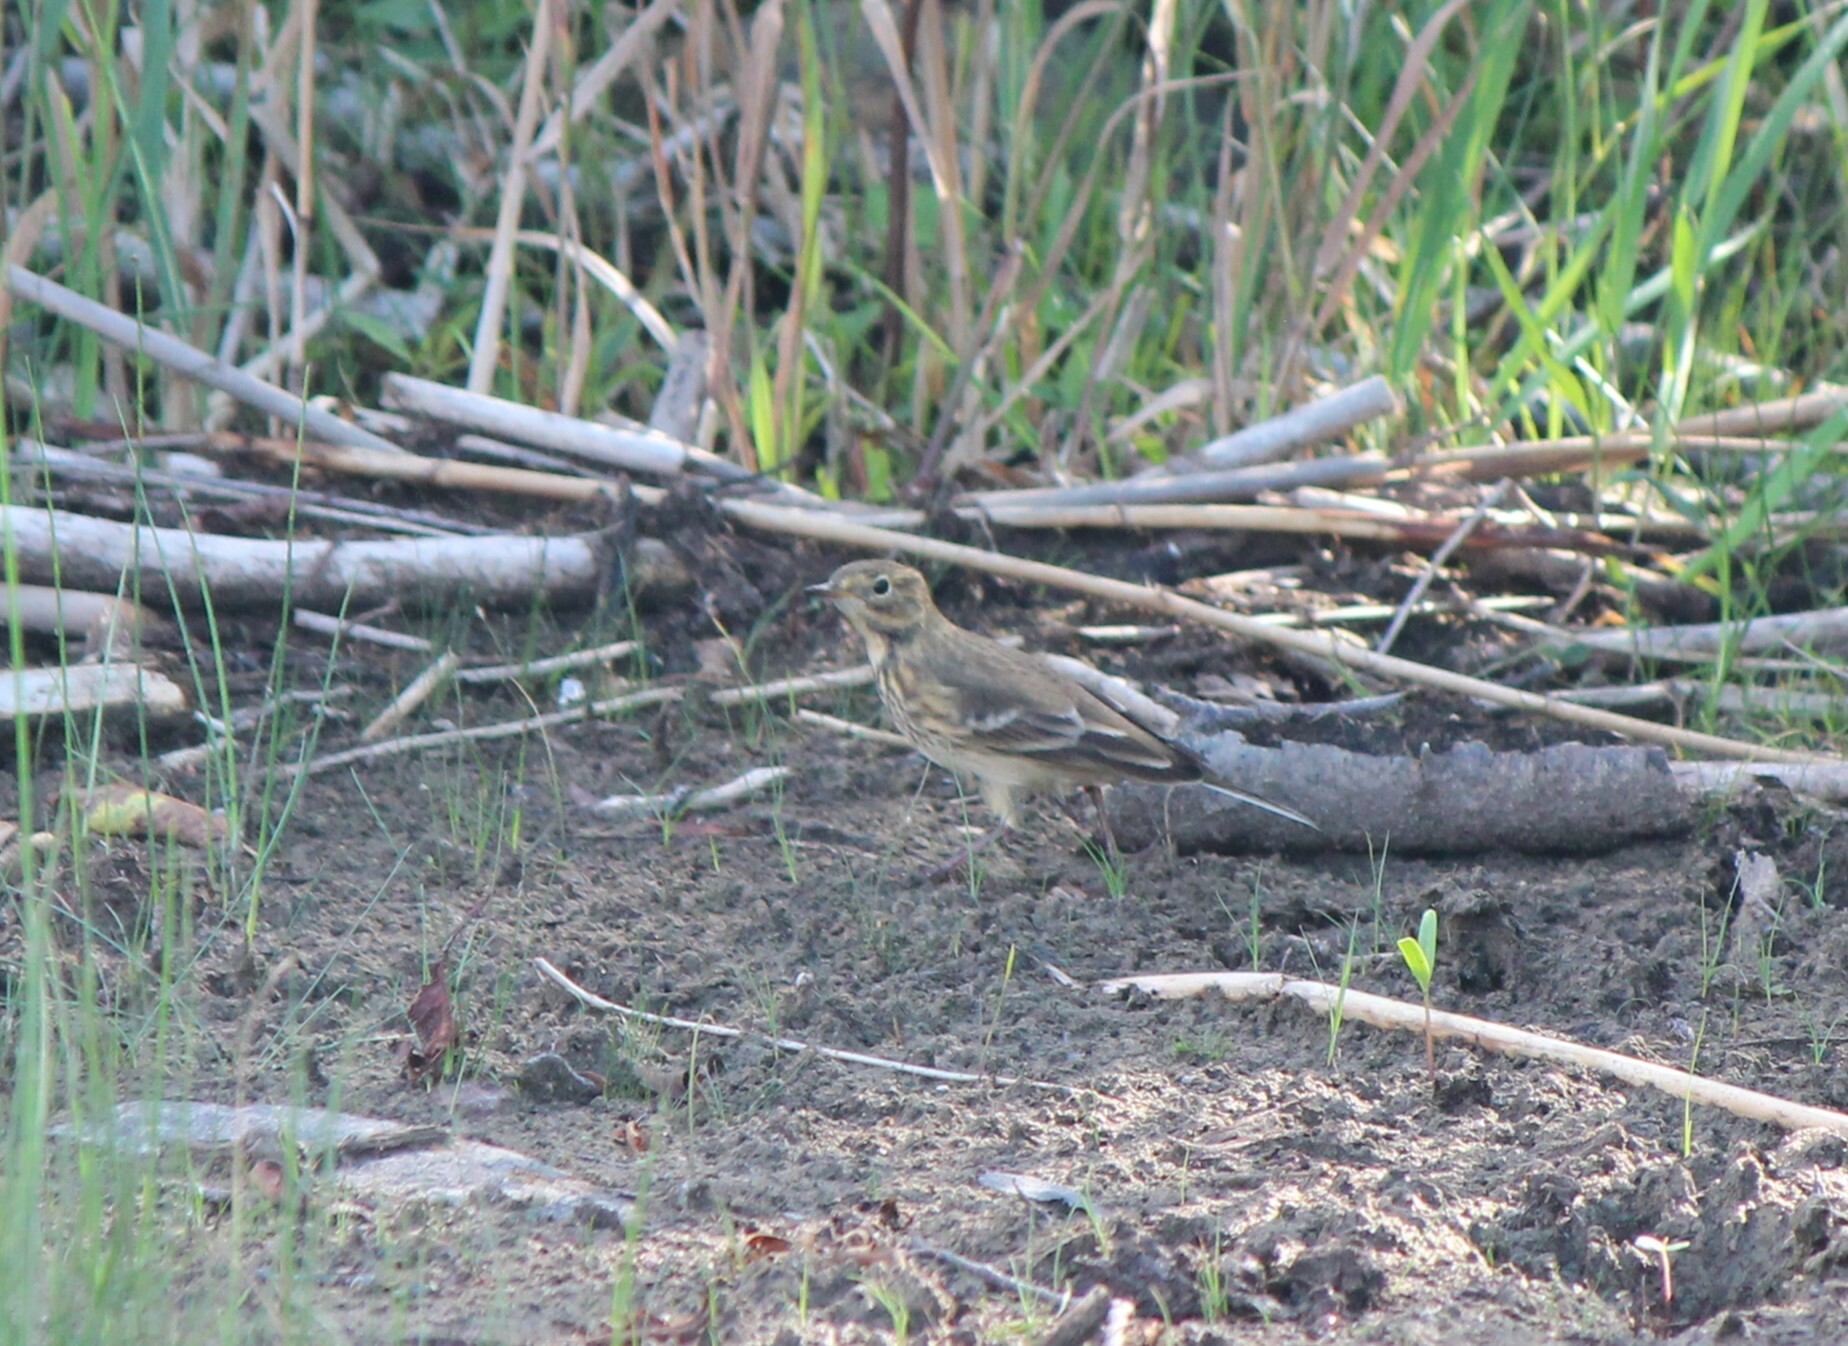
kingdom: Animalia
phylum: Chordata
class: Aves
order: Passeriformes
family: Motacillidae
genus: Anthus
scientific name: Anthus rubescens
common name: Buff-bellied pipit
